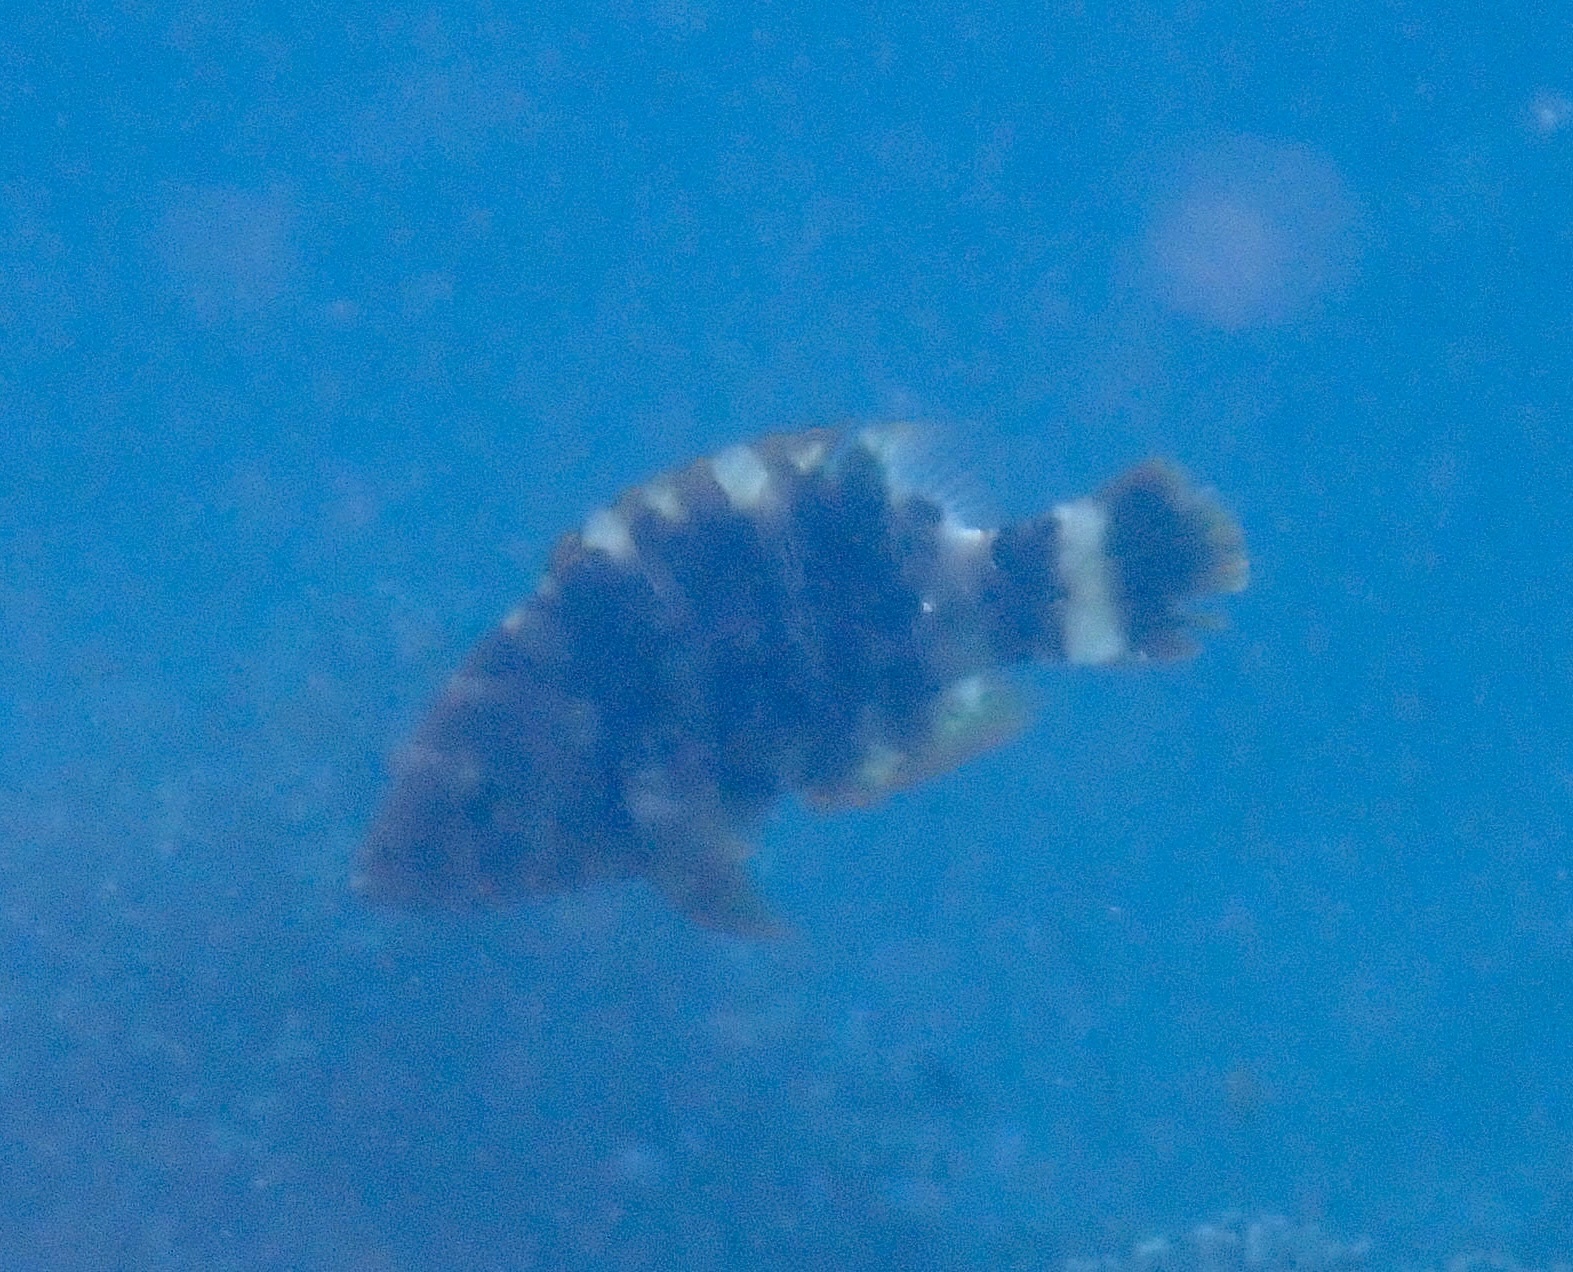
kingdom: Animalia
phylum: Chordata
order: Perciformes
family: Labridae
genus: Cheilinus
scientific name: Cheilinus trilobatus
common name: Tripletail maori wrasse
